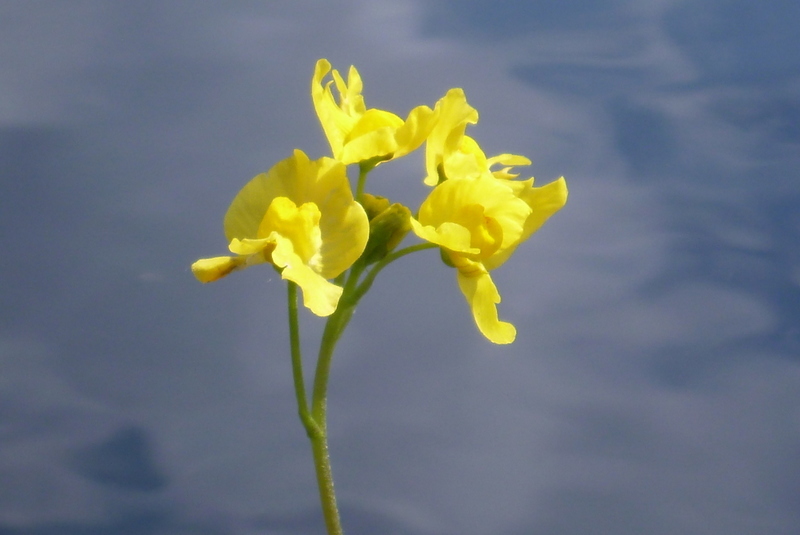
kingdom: Plantae
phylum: Tracheophyta
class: Magnoliopsida
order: Lamiales
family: Lentibulariaceae
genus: Utricularia
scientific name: Utricularia inflata
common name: Floating bladderwort
